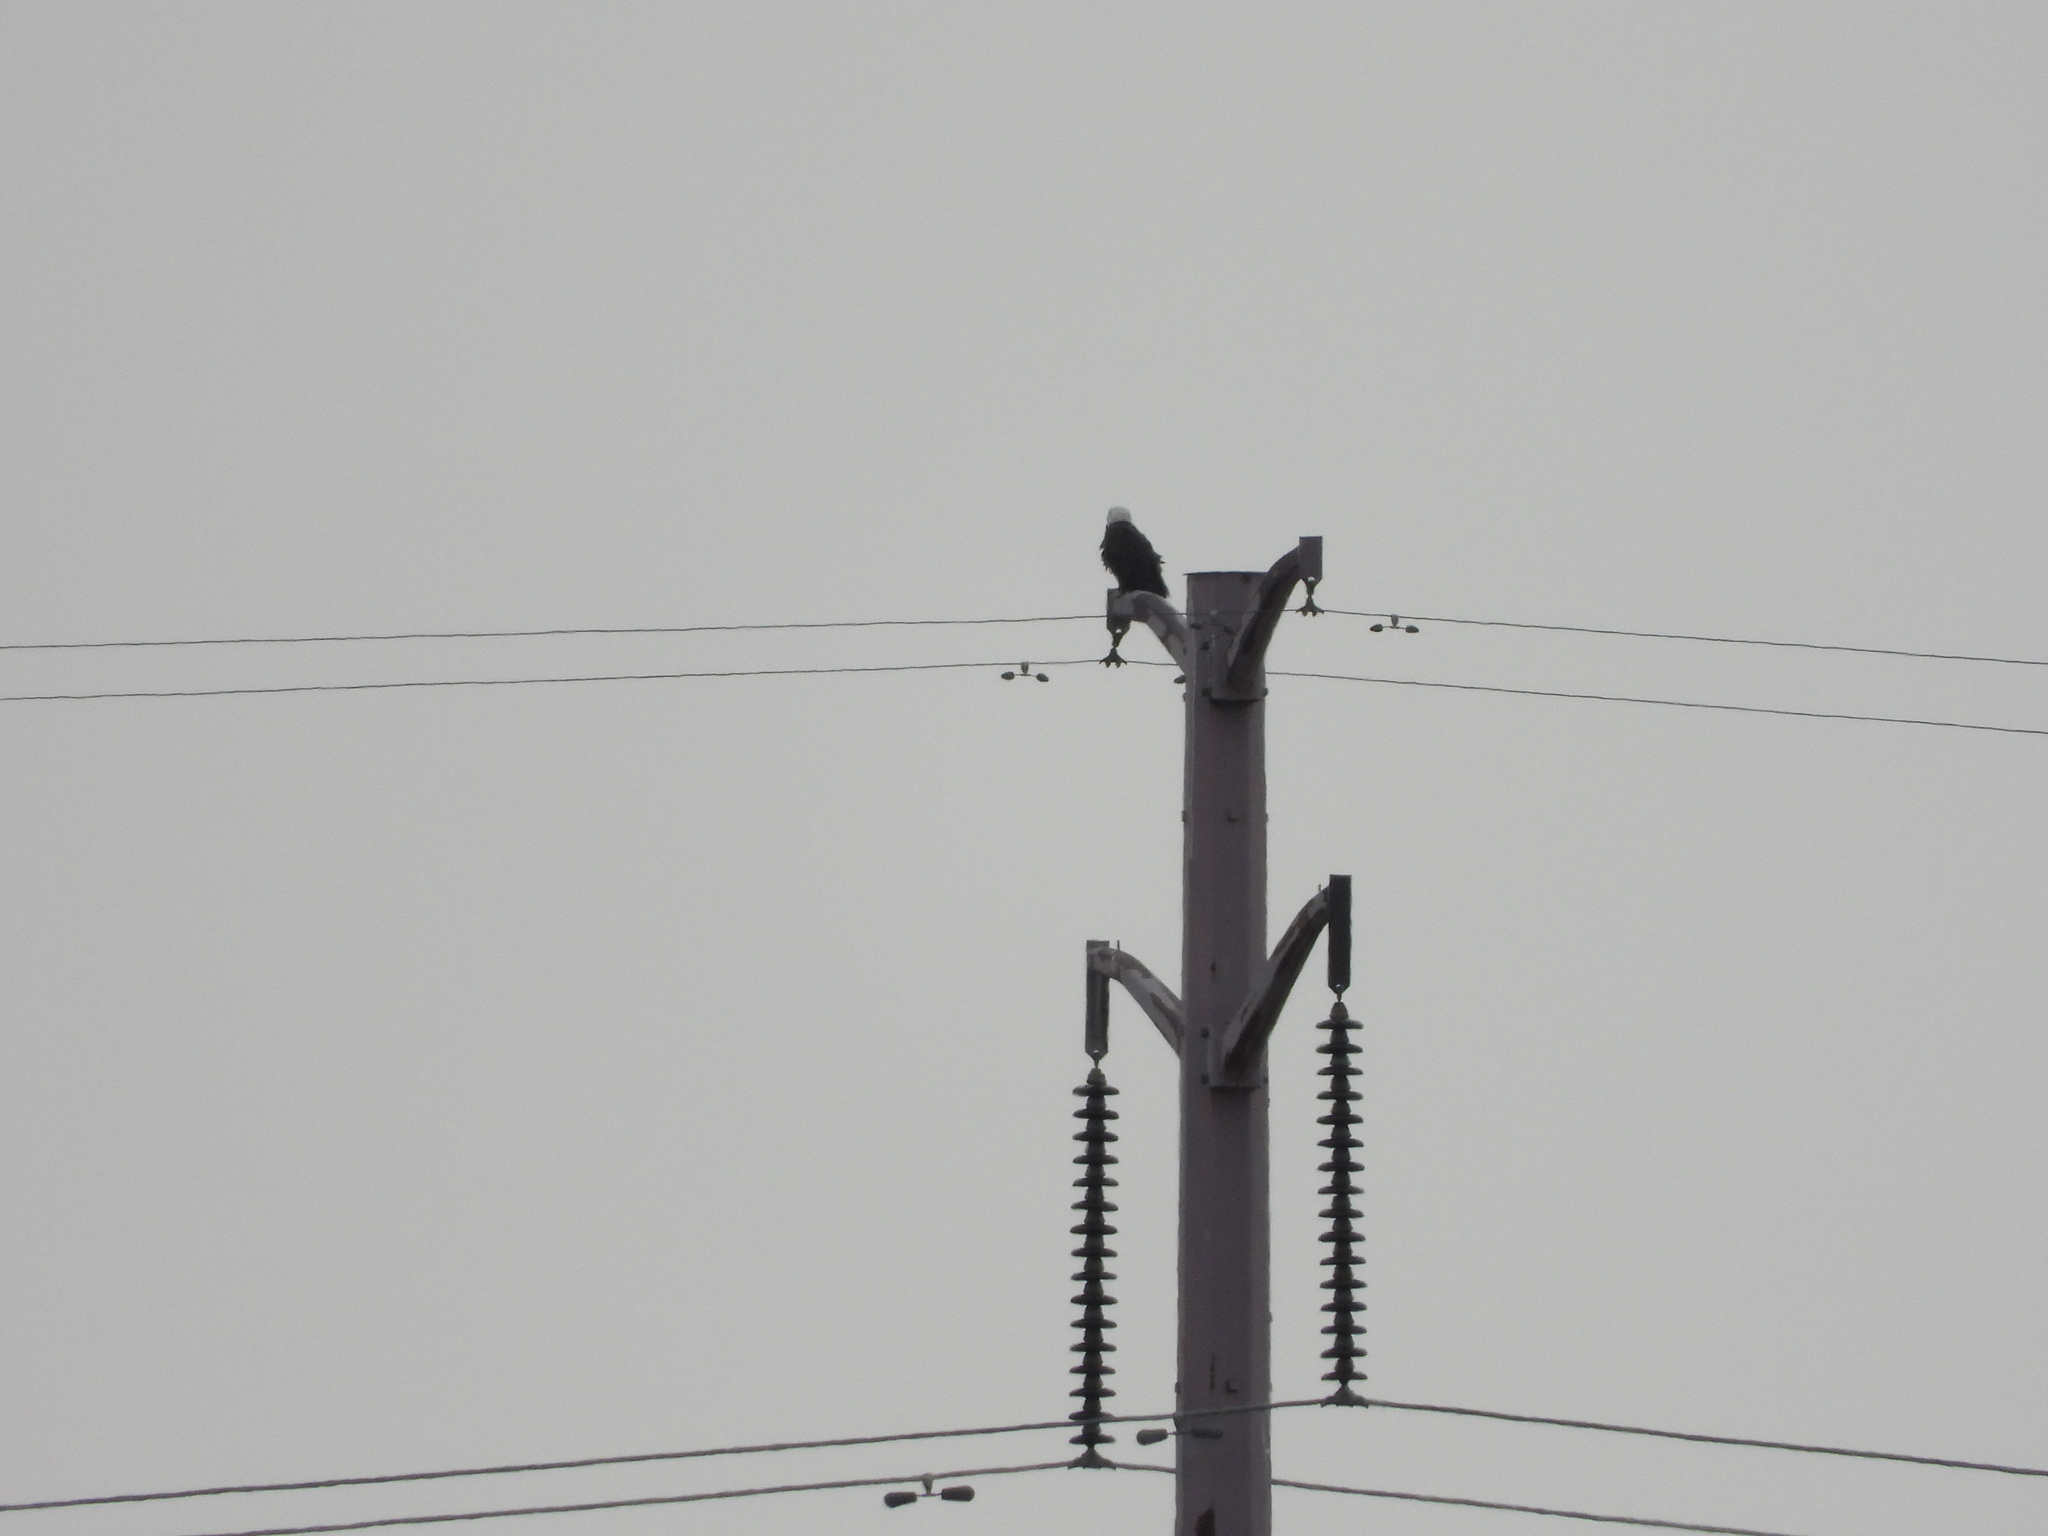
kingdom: Animalia
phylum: Chordata
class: Aves
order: Accipitriformes
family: Accipitridae
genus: Haliaeetus
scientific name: Haliaeetus leucocephalus
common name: Bald eagle
